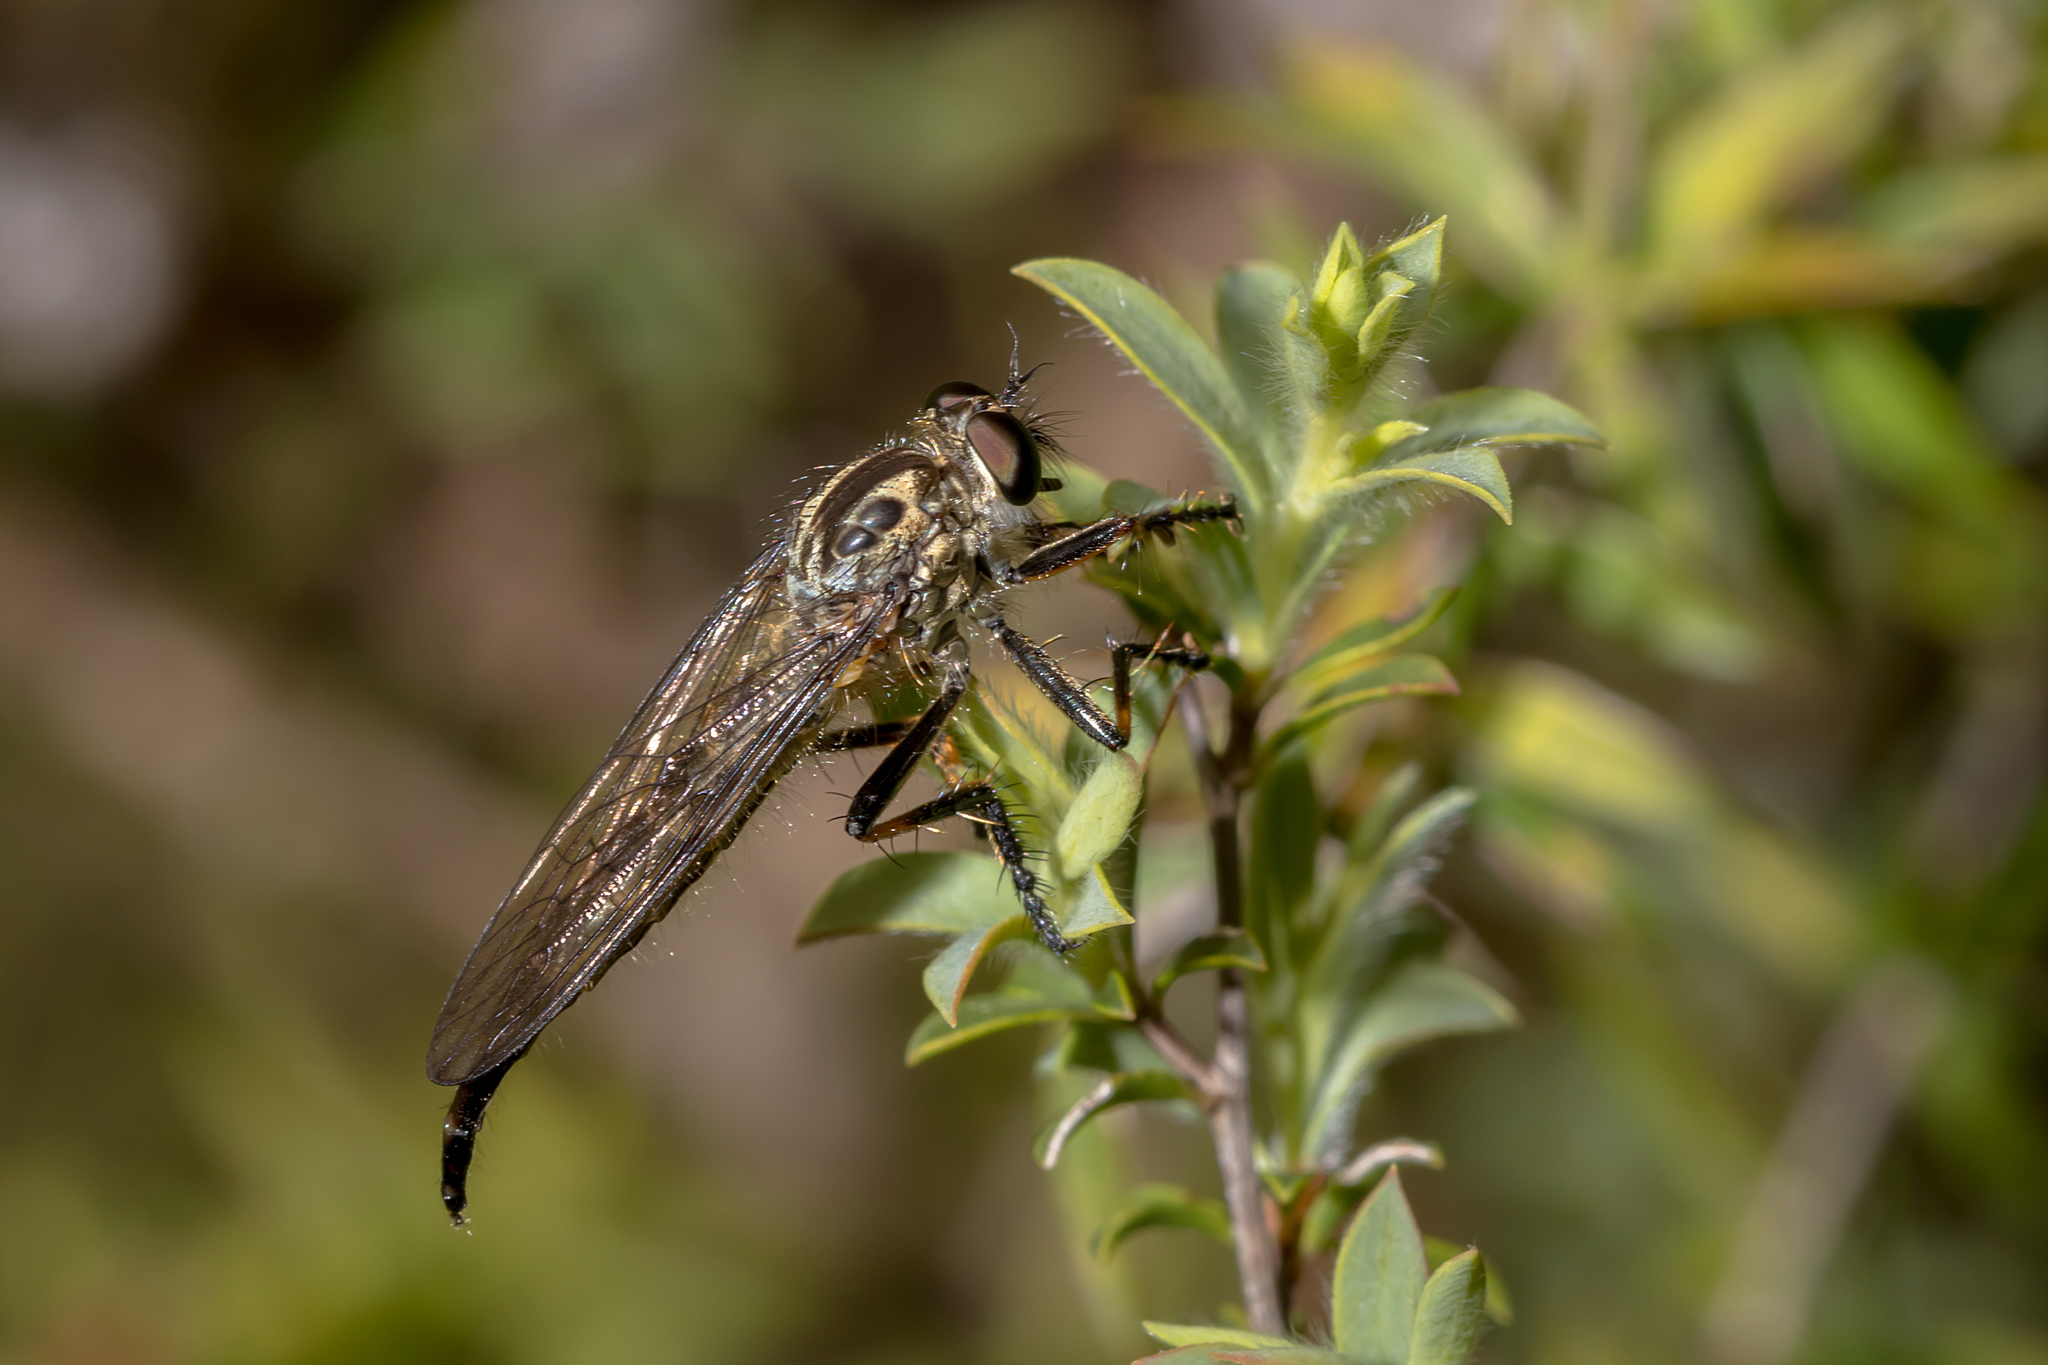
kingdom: Animalia
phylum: Arthropoda
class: Insecta
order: Diptera
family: Asilidae
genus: Cerdistus
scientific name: Cerdistus rusticanoides
